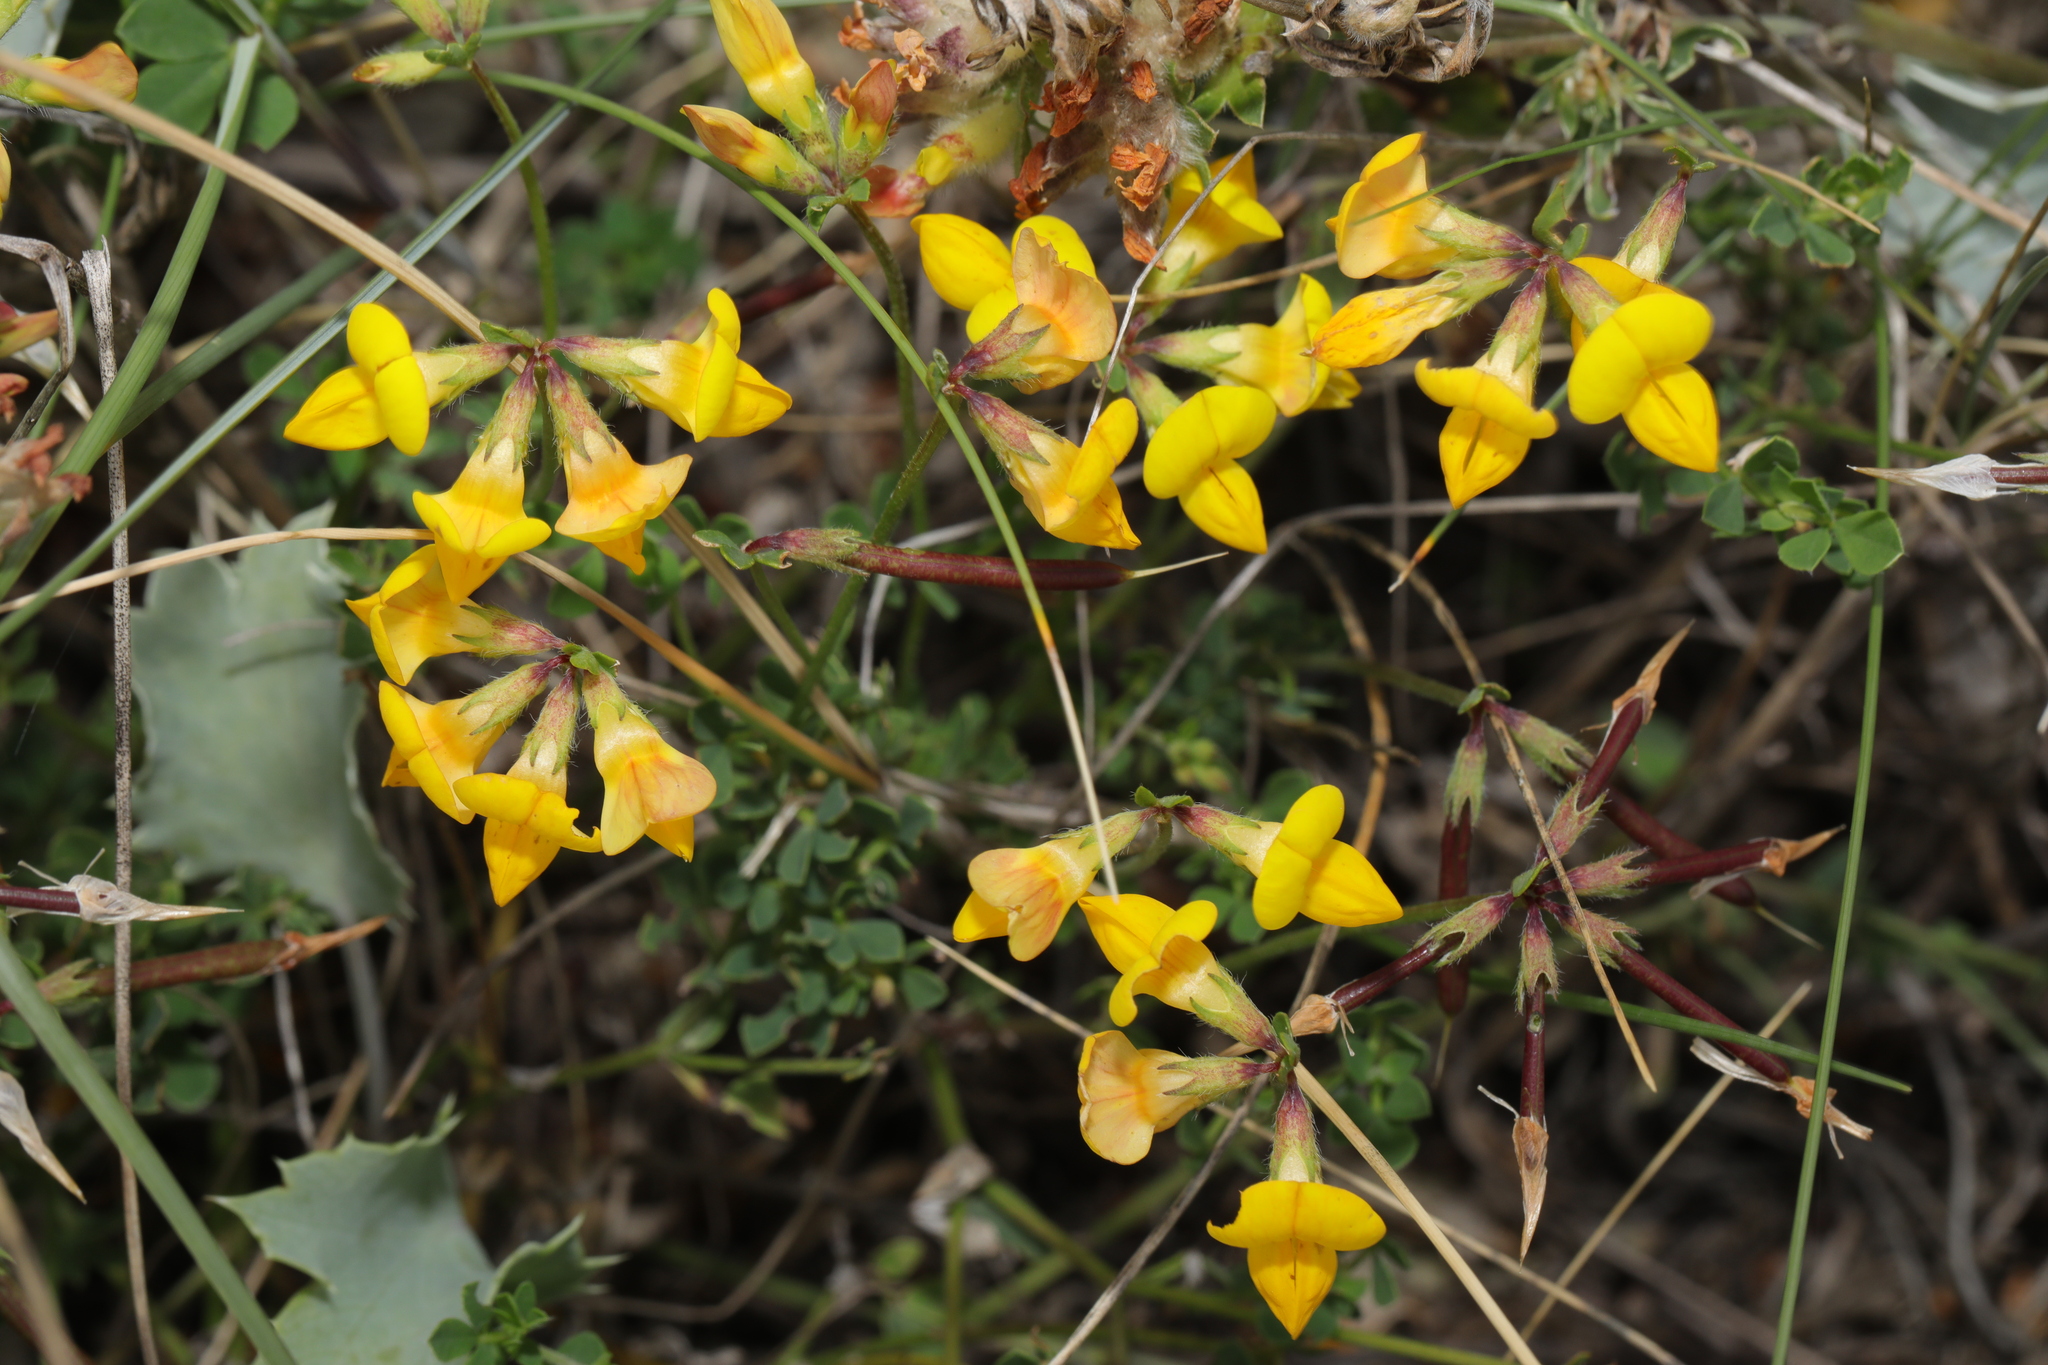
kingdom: Plantae
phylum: Tracheophyta
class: Magnoliopsida
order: Fabales
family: Fabaceae
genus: Lotus
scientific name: Lotus corniculatus
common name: Common bird's-foot-trefoil
